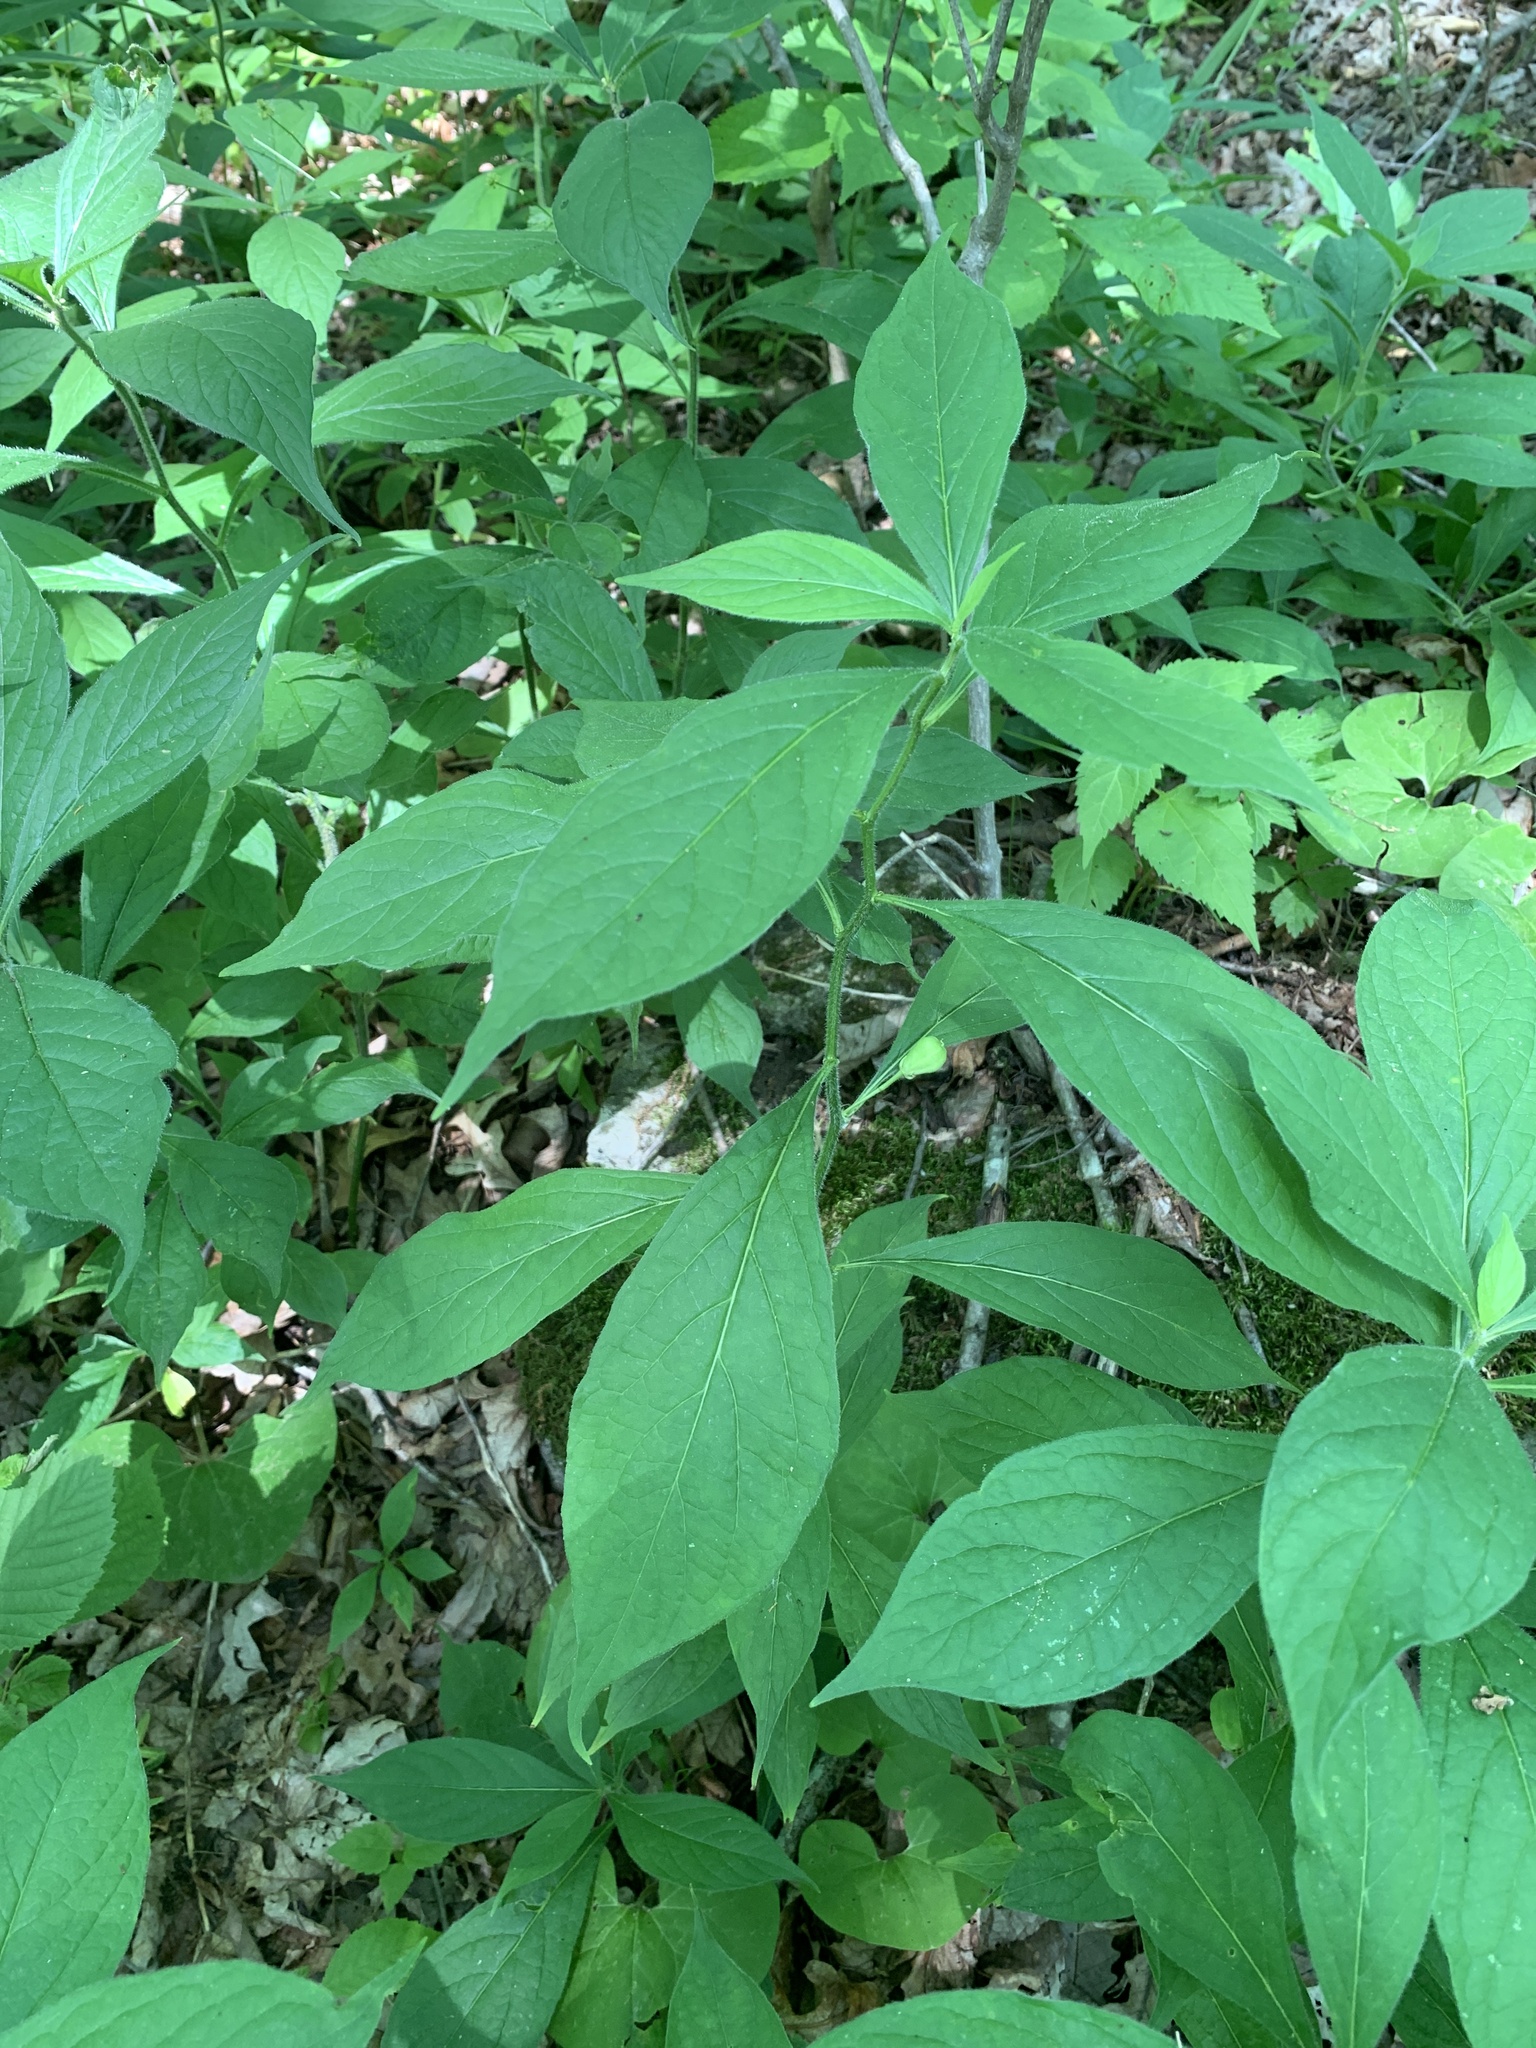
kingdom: Plantae
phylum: Tracheophyta
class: Magnoliopsida
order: Malpighiales
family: Violaceae
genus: Cubelium
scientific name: Cubelium concolor
